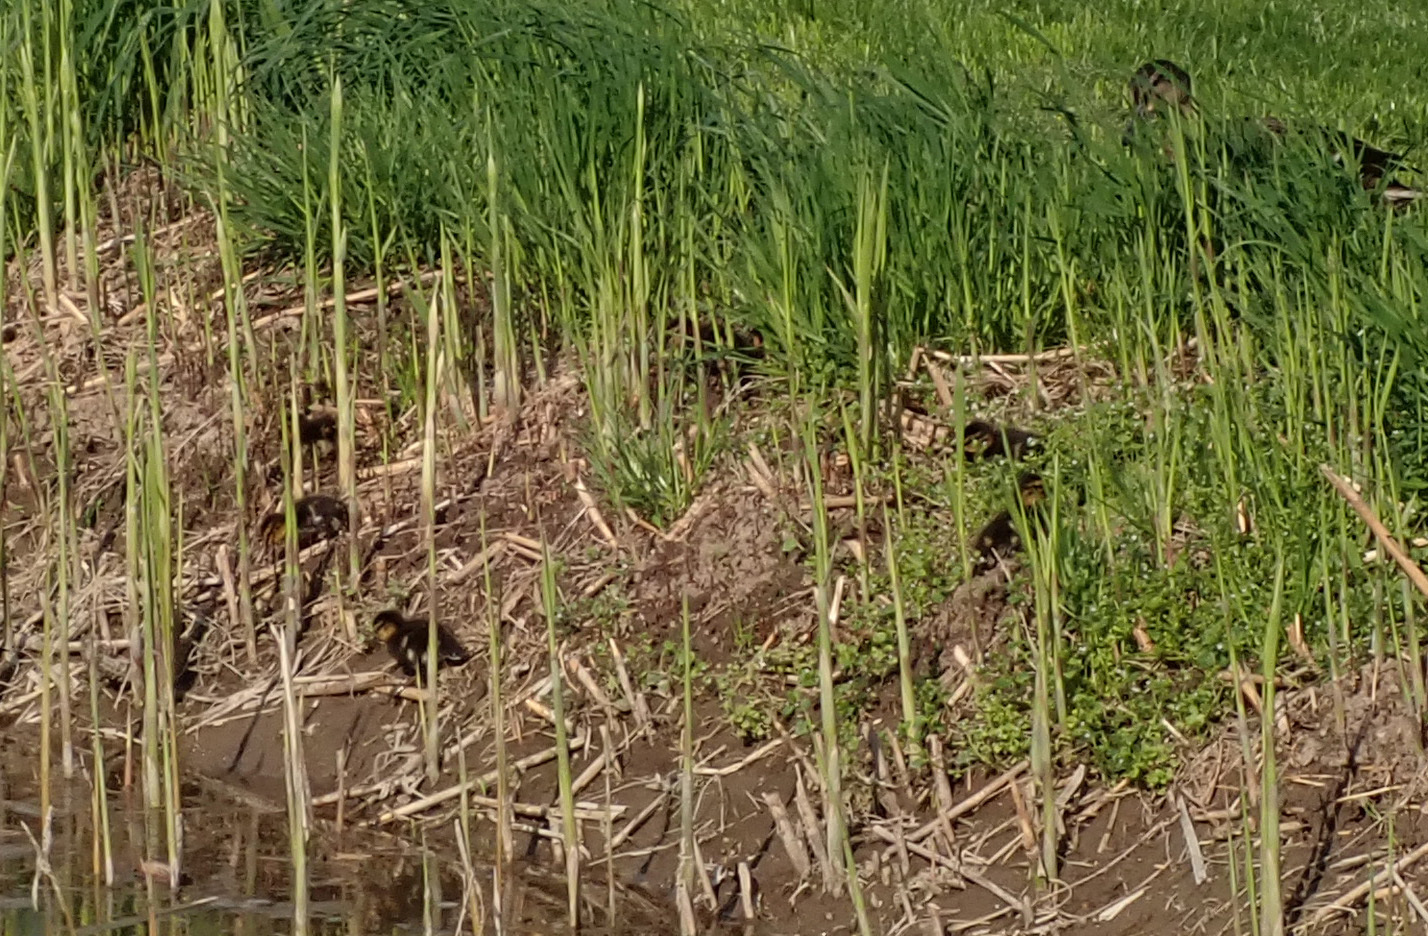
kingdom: Animalia
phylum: Chordata
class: Aves
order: Anseriformes
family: Anatidae
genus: Anas
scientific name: Anas platyrhynchos
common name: Mallard
